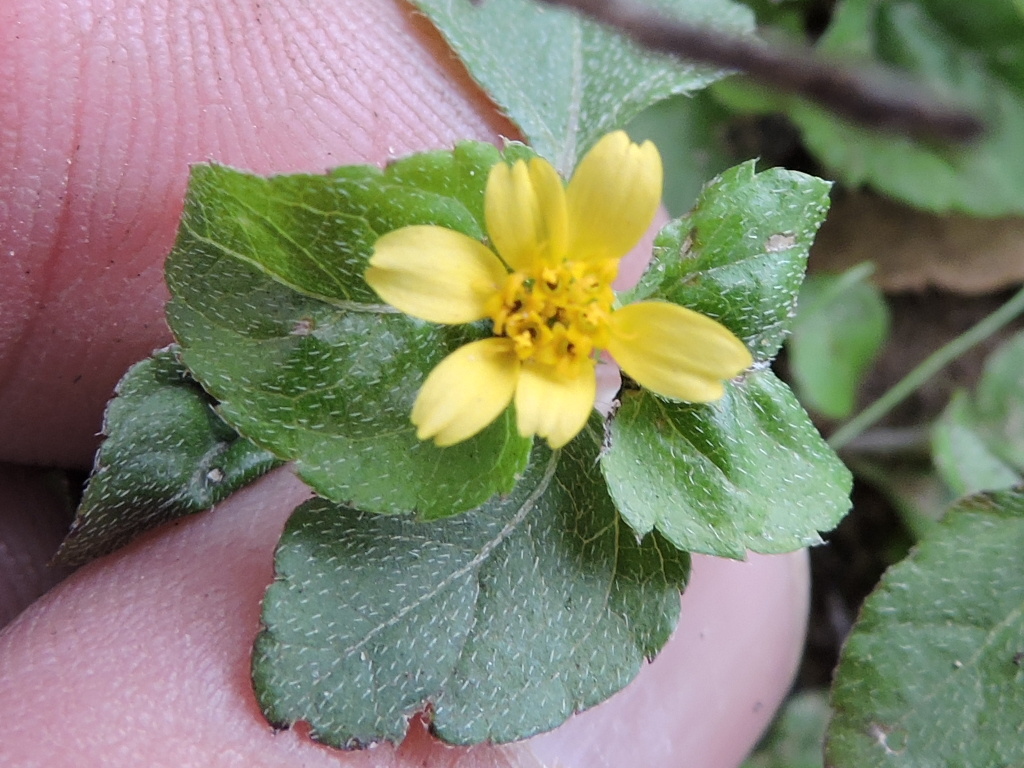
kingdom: Plantae
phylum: Tracheophyta
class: Magnoliopsida
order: Asterales
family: Asteraceae
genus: Calyptocarpus
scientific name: Calyptocarpus vialis
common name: Straggler daisy
